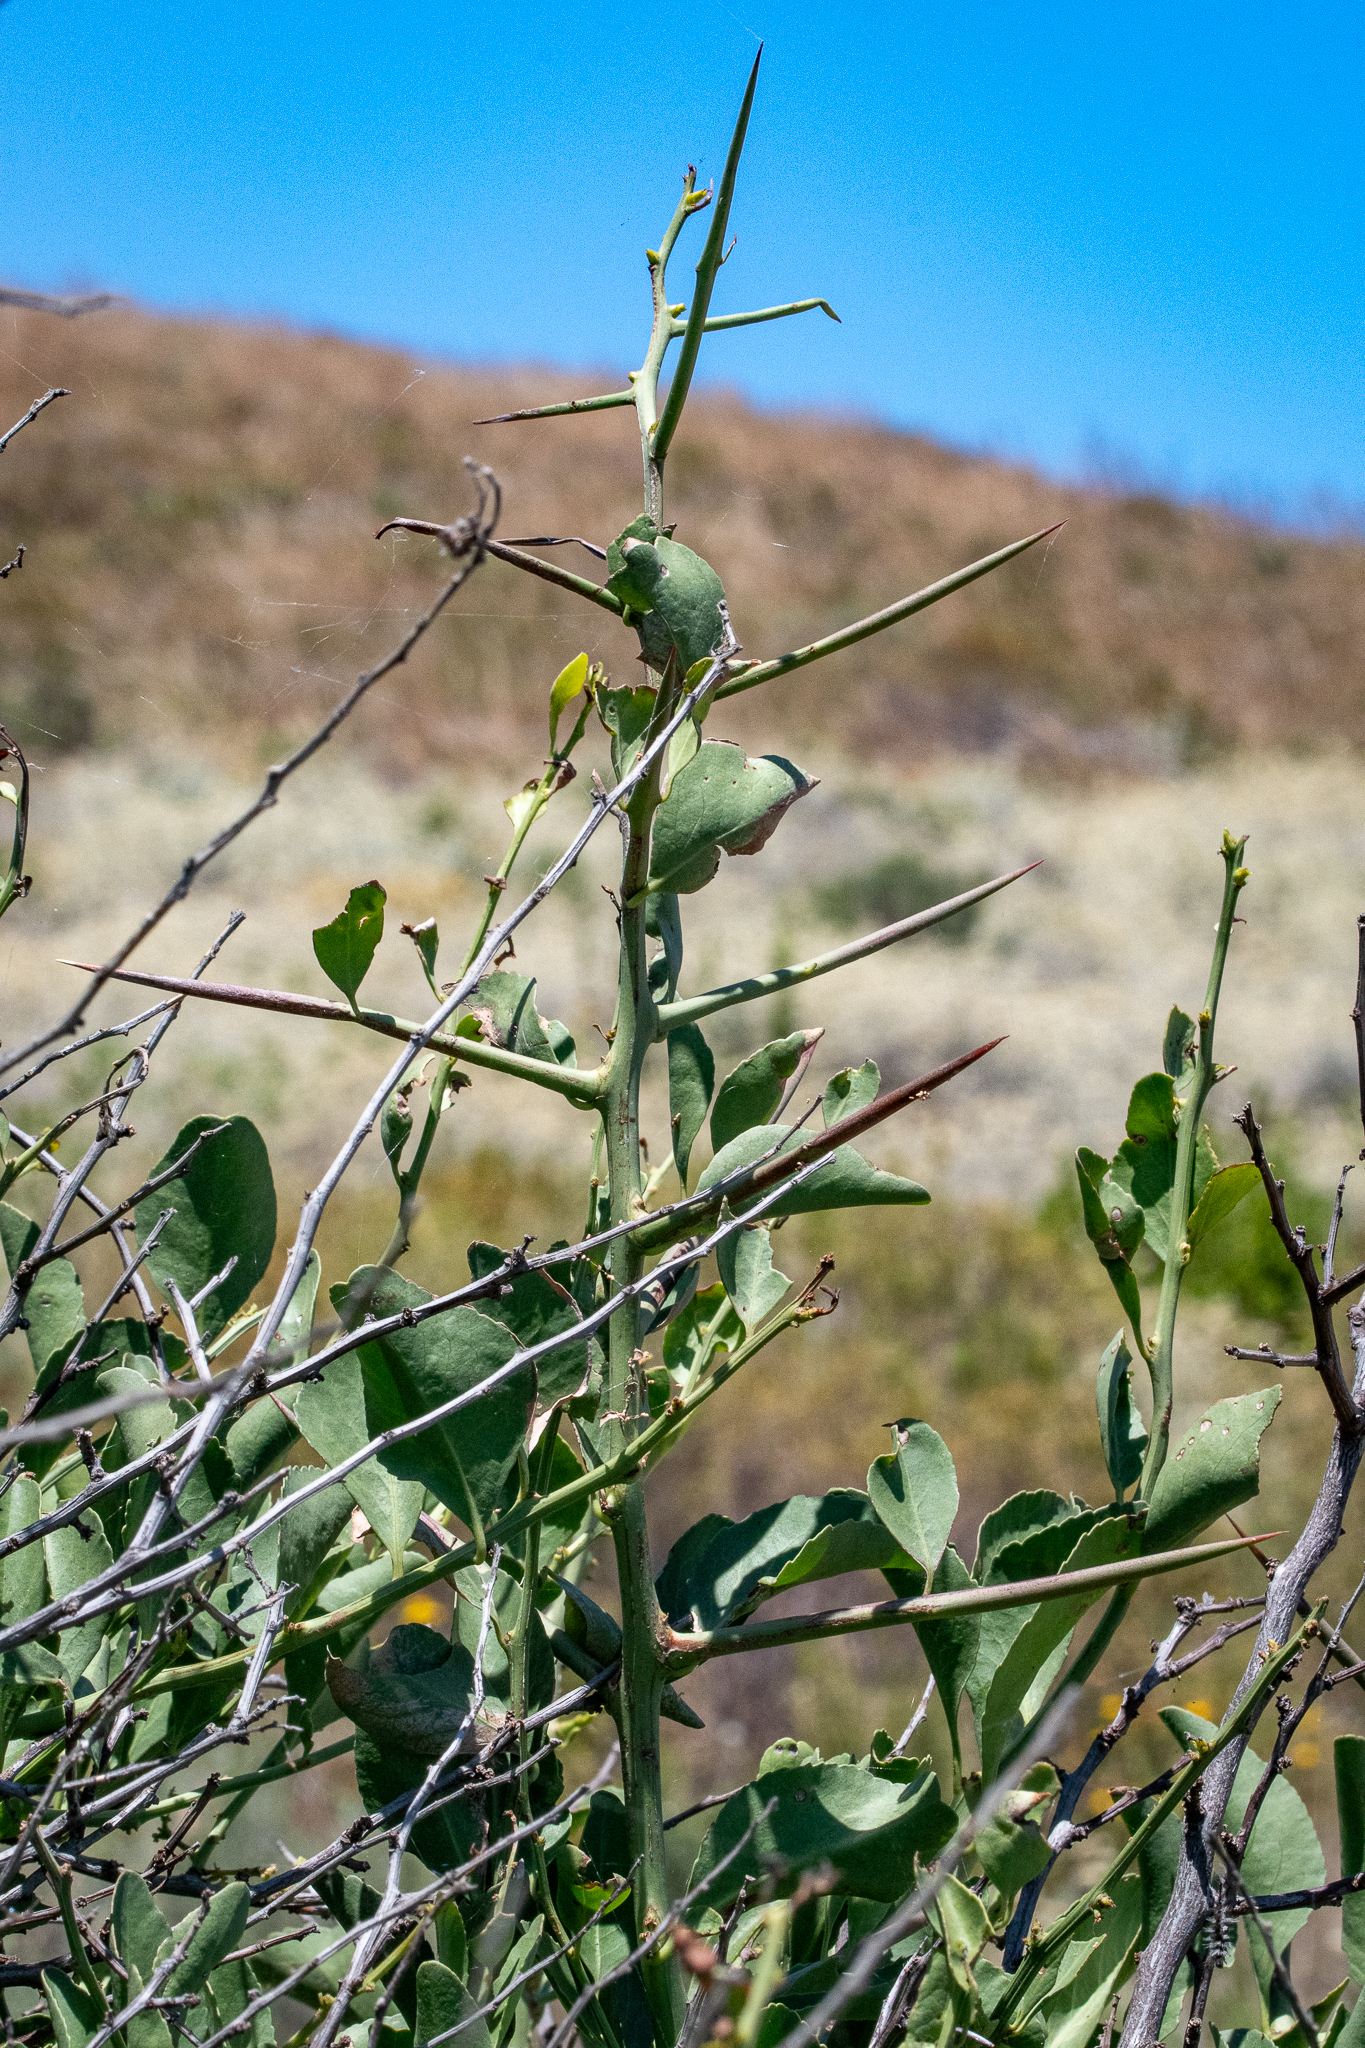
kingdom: Plantae
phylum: Tracheophyta
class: Magnoliopsida
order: Celastrales
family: Celastraceae
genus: Gymnosporia
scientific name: Gymnosporia buxifolia
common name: Common spike-thorn
